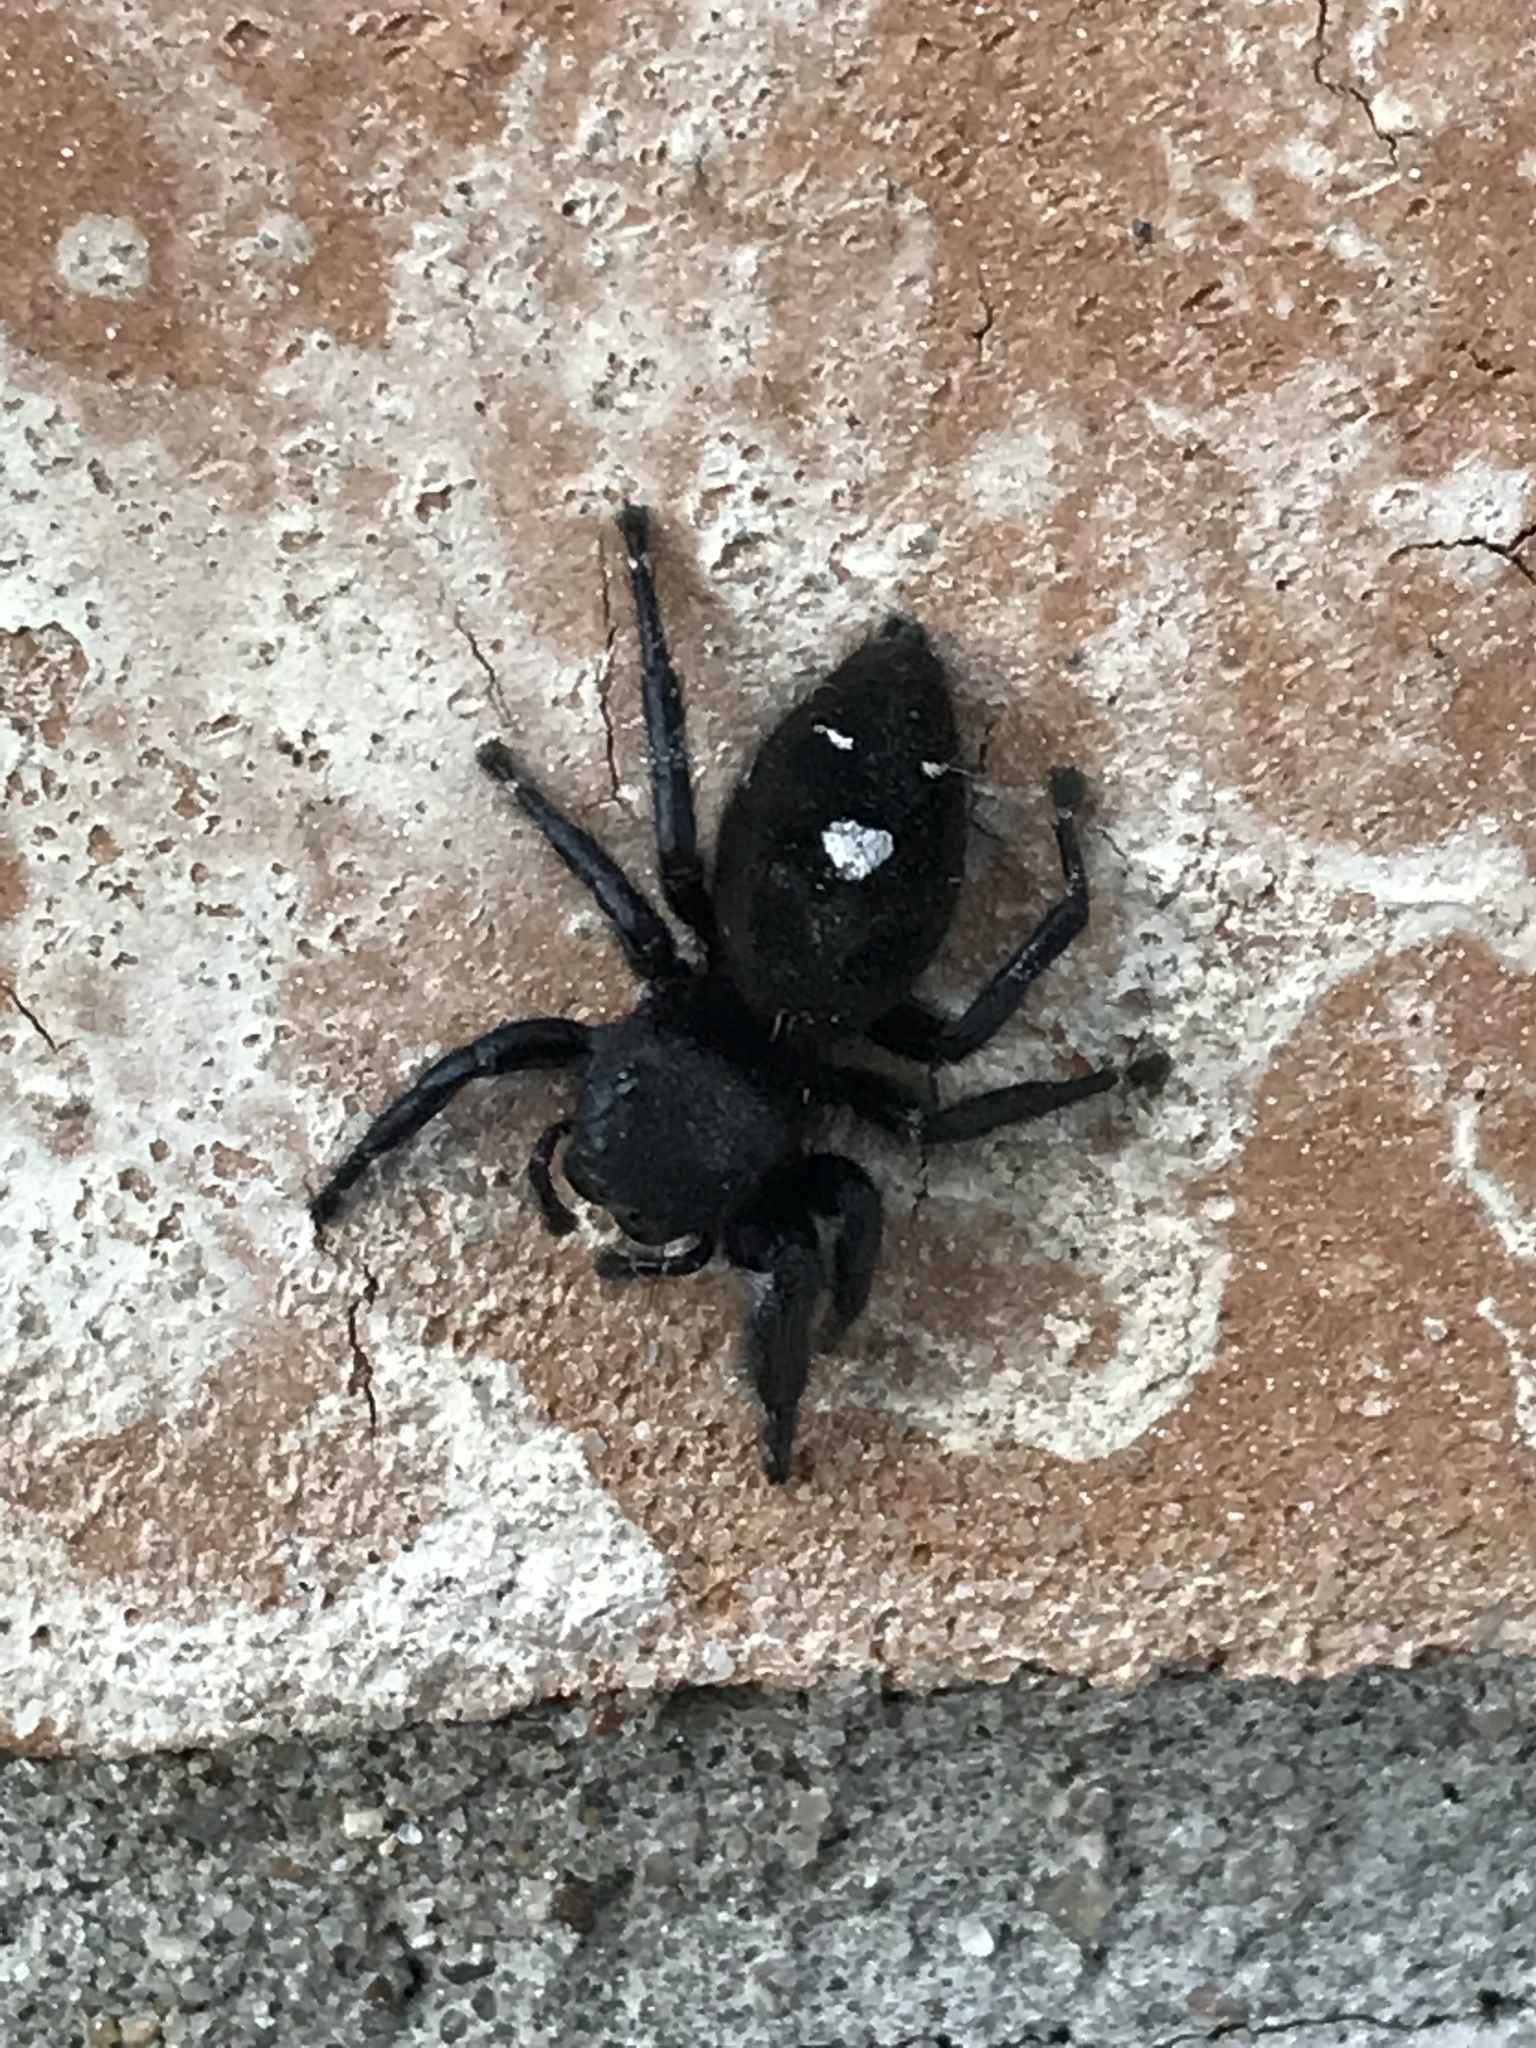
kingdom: Animalia
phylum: Arthropoda
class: Arachnida
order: Araneae
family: Salticidae
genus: Phidippus
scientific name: Phidippus audax
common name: Bold jumper
